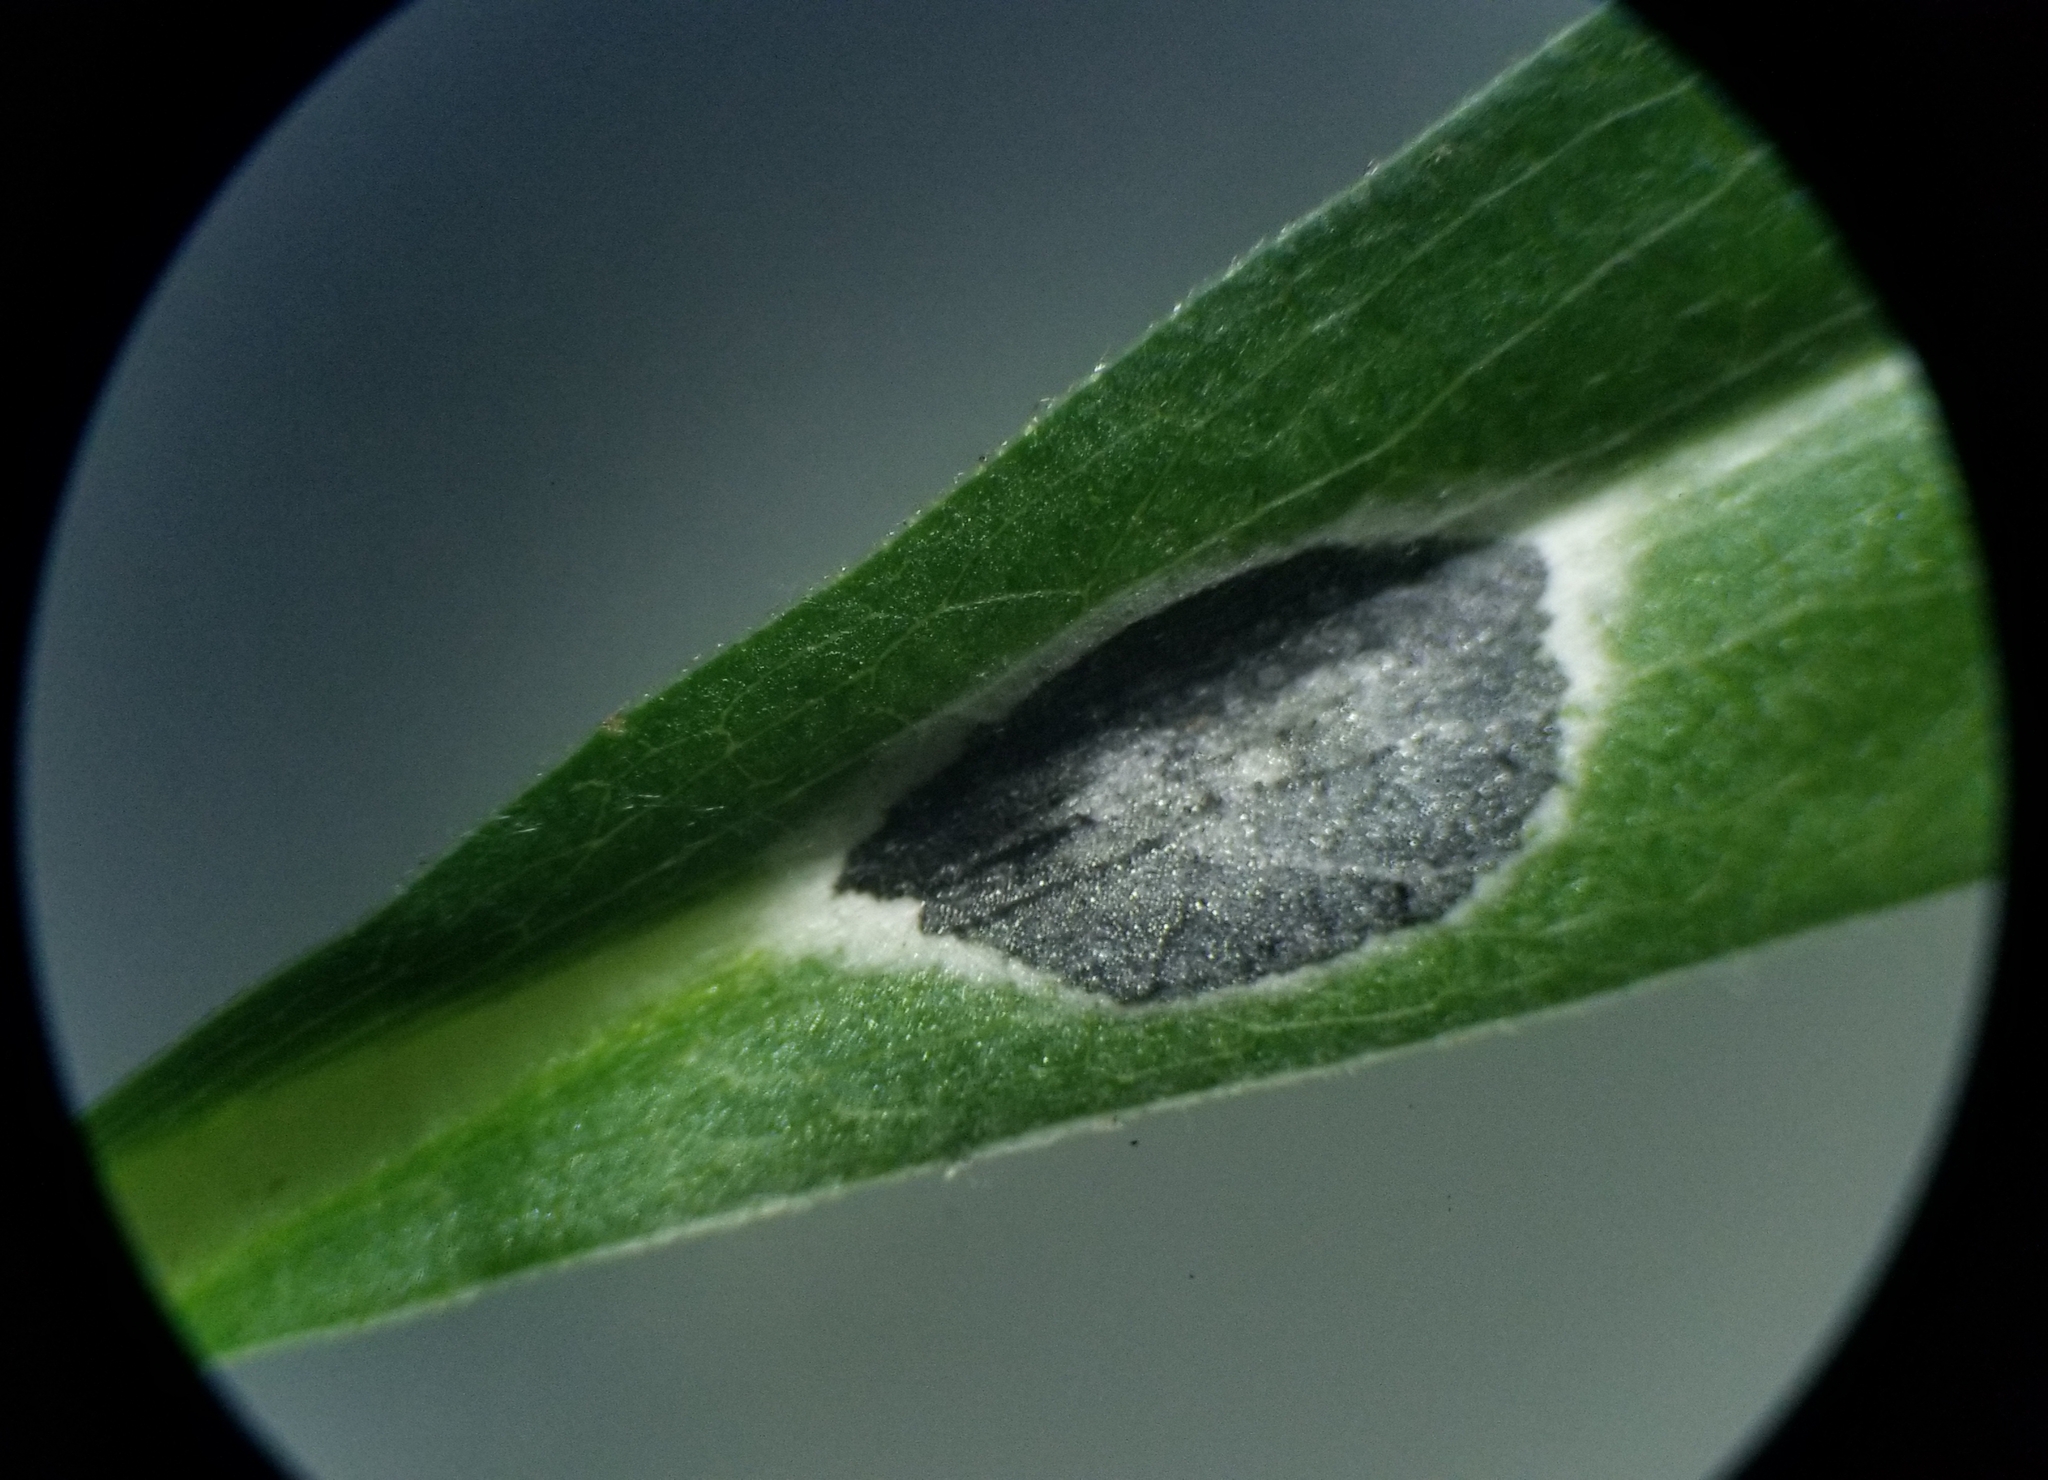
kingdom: Animalia
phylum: Arthropoda
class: Insecta
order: Diptera
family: Cecidomyiidae
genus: Asteromyia
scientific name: Asteromyia laeviana
